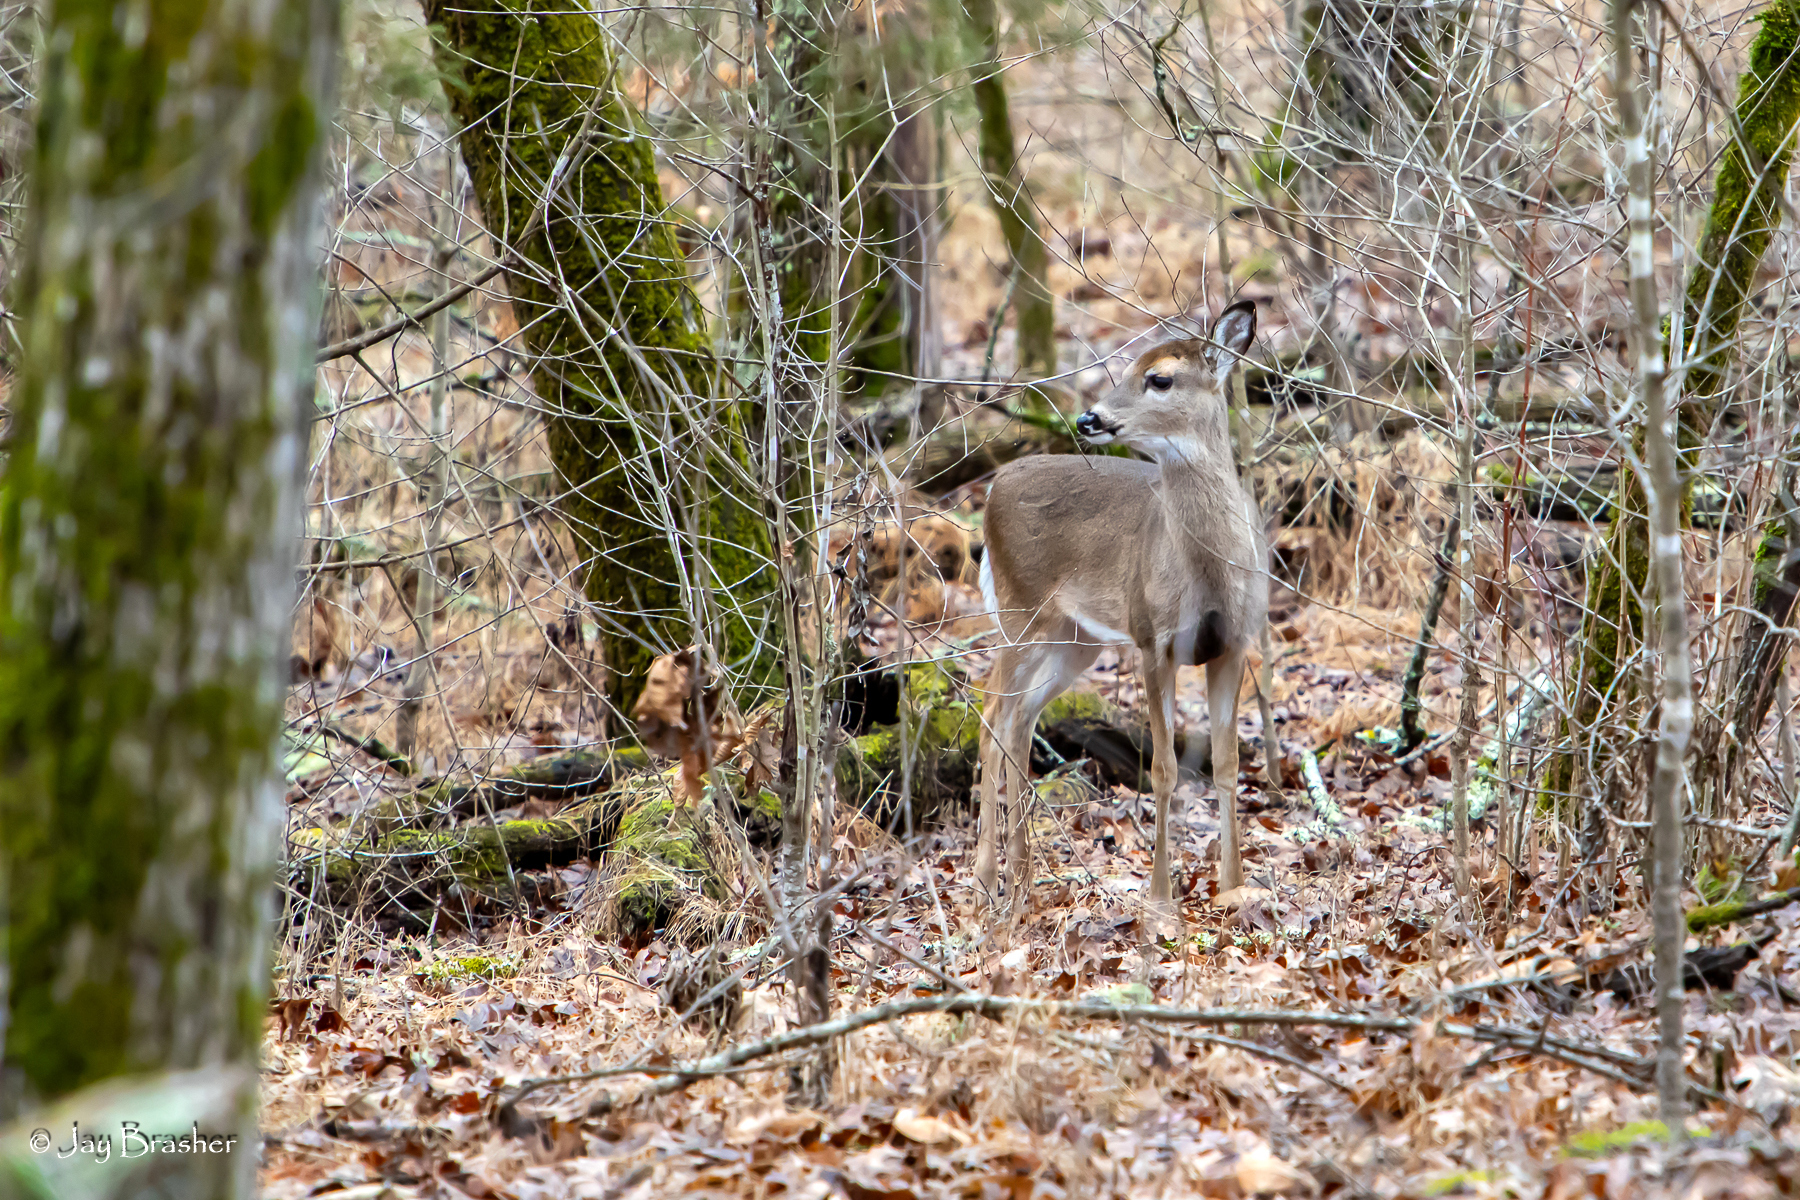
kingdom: Animalia
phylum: Chordata
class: Mammalia
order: Artiodactyla
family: Cervidae
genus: Odocoileus
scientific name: Odocoileus virginianus
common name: White-tailed deer
